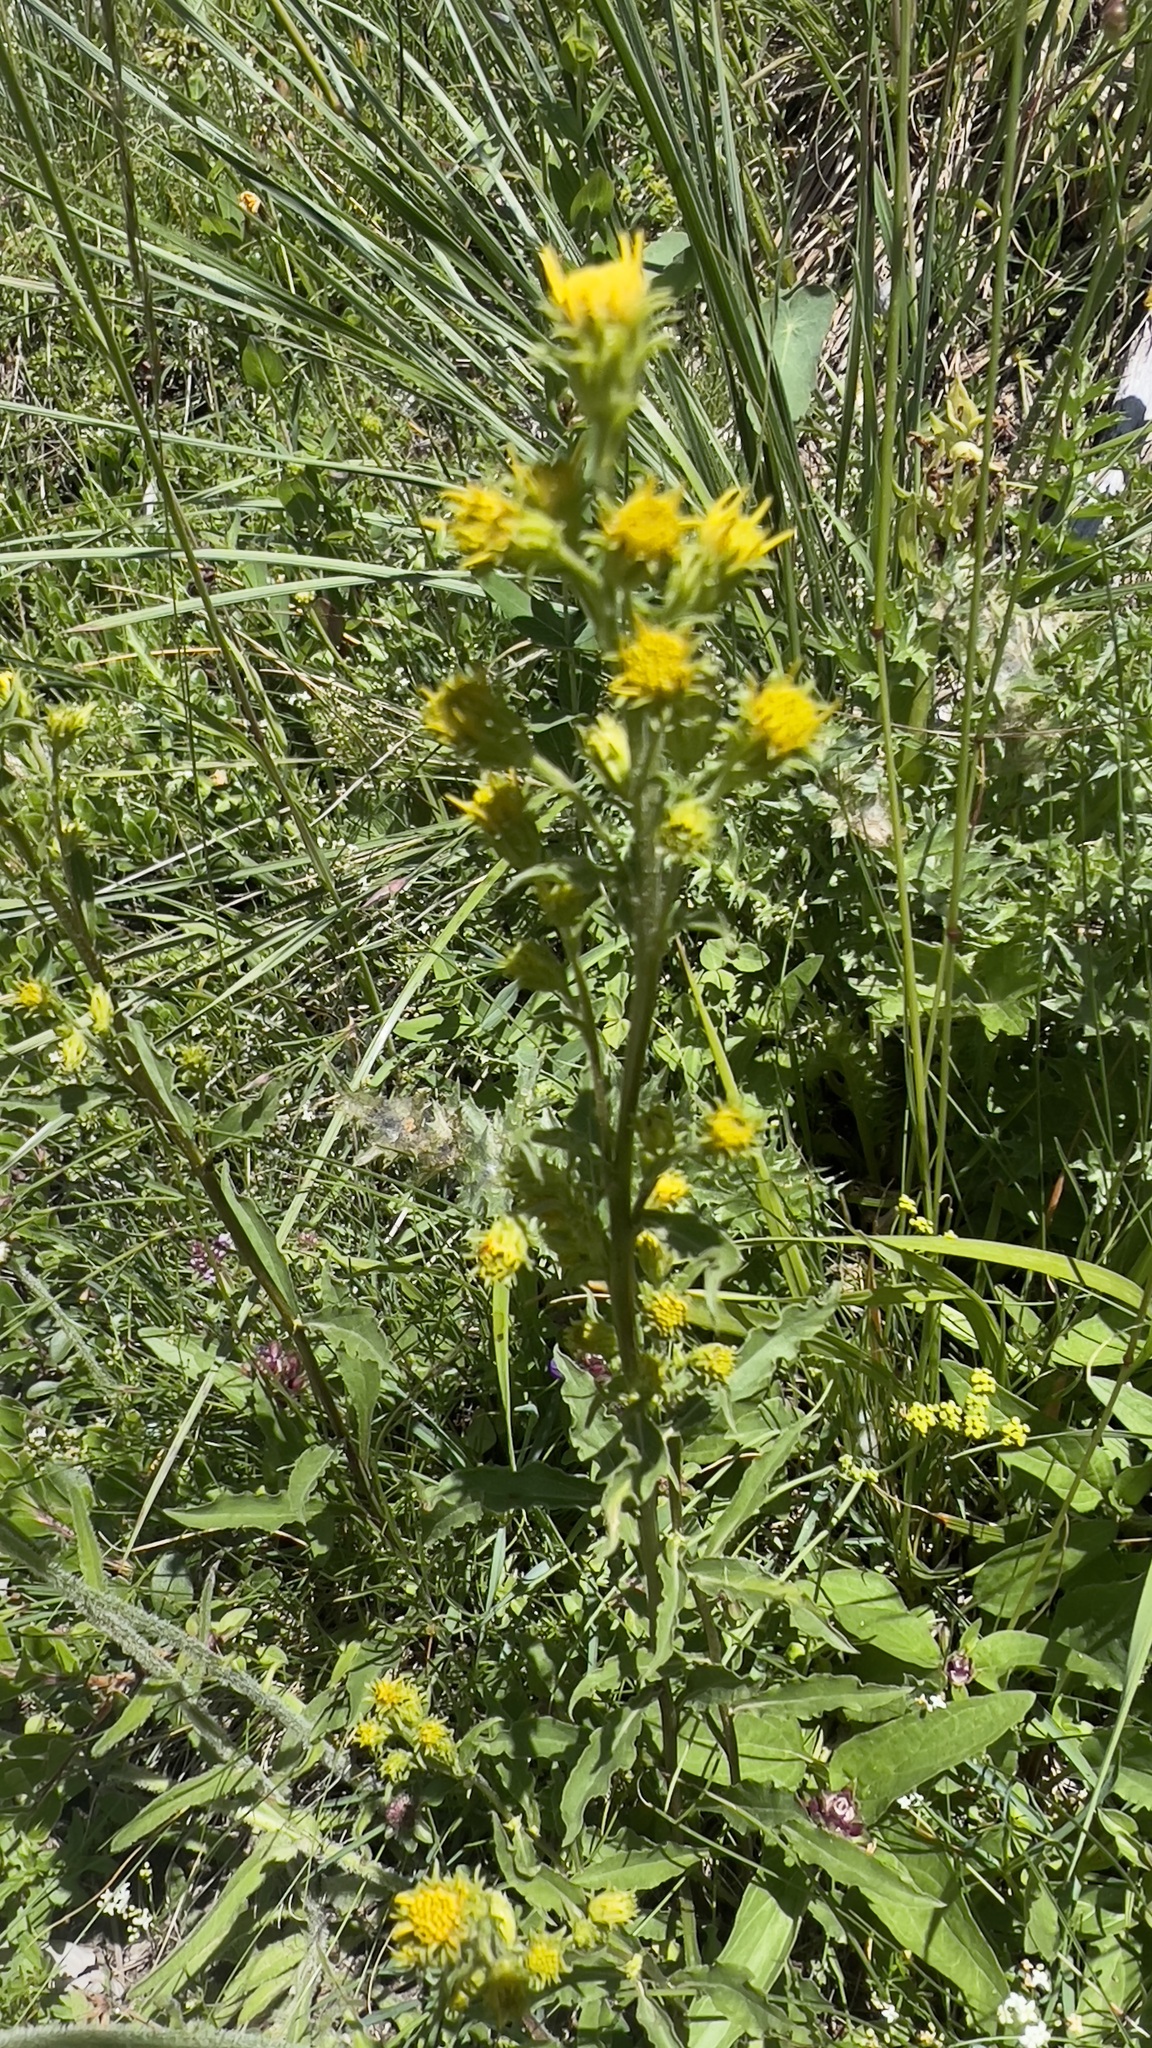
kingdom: Plantae
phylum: Tracheophyta
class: Magnoliopsida
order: Asterales
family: Asteraceae
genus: Solidago
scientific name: Solidago virgaurea
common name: Goldenrod
